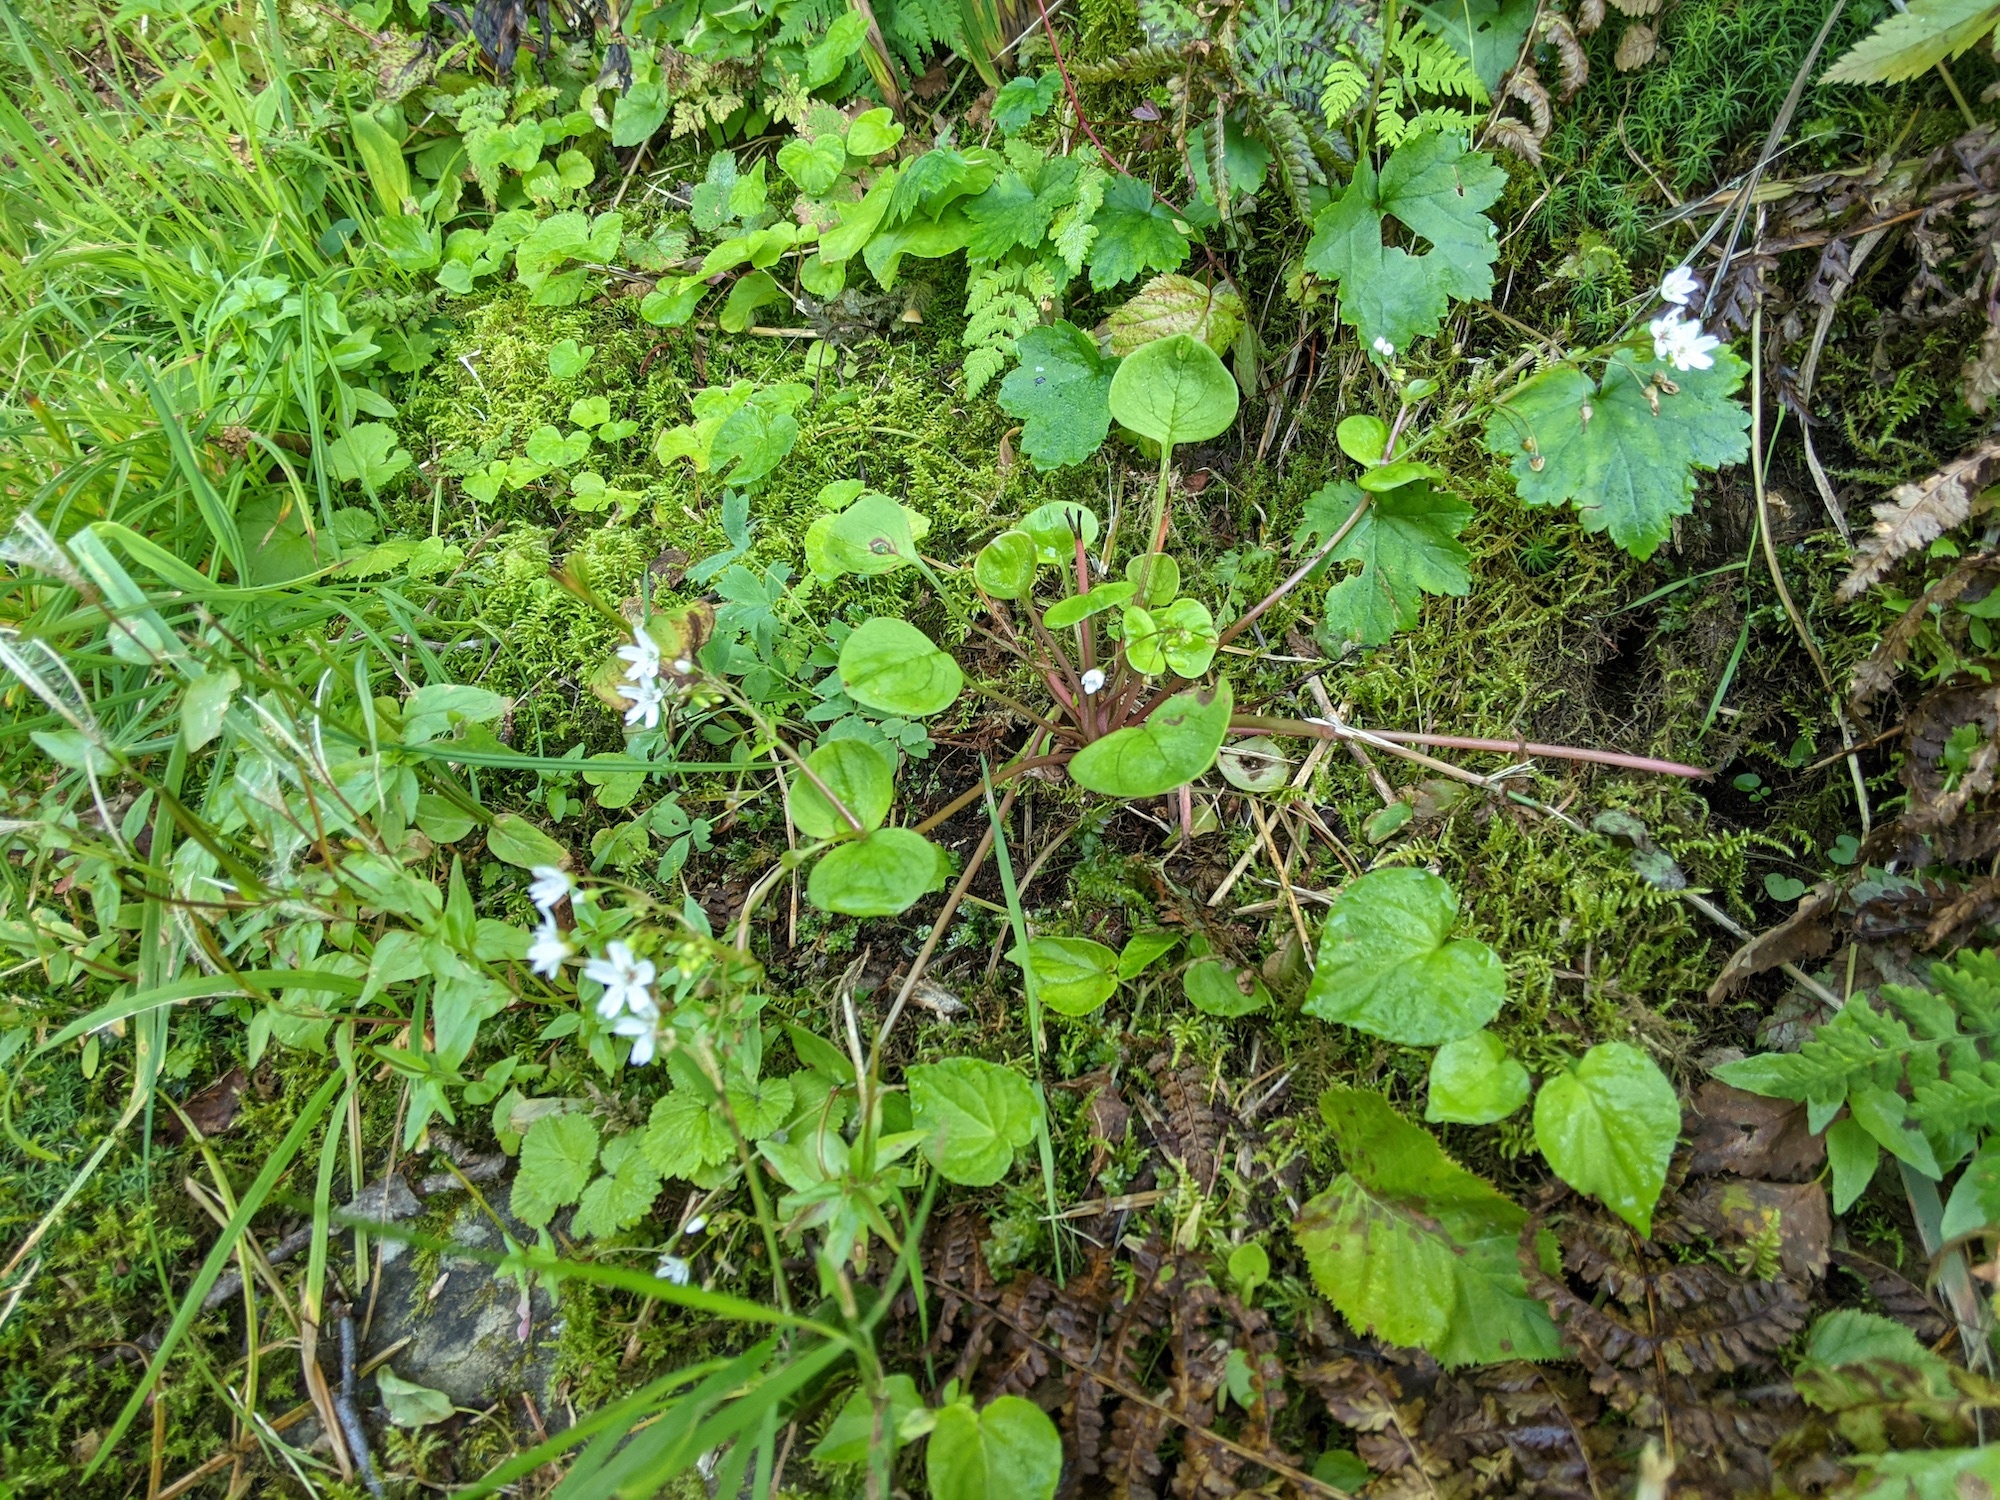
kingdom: Plantae
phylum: Tracheophyta
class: Magnoliopsida
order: Caryophyllales
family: Montiaceae
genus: Claytonia
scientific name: Claytonia sibirica
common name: Pink purslane
